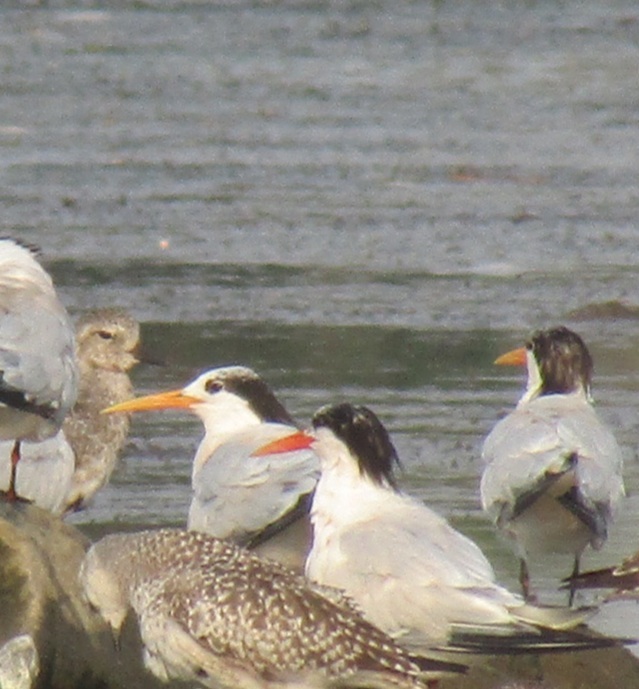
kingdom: Animalia
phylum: Chordata
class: Aves
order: Charadriiformes
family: Laridae
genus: Thalasseus
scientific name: Thalasseus elegans
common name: Elegant tern
